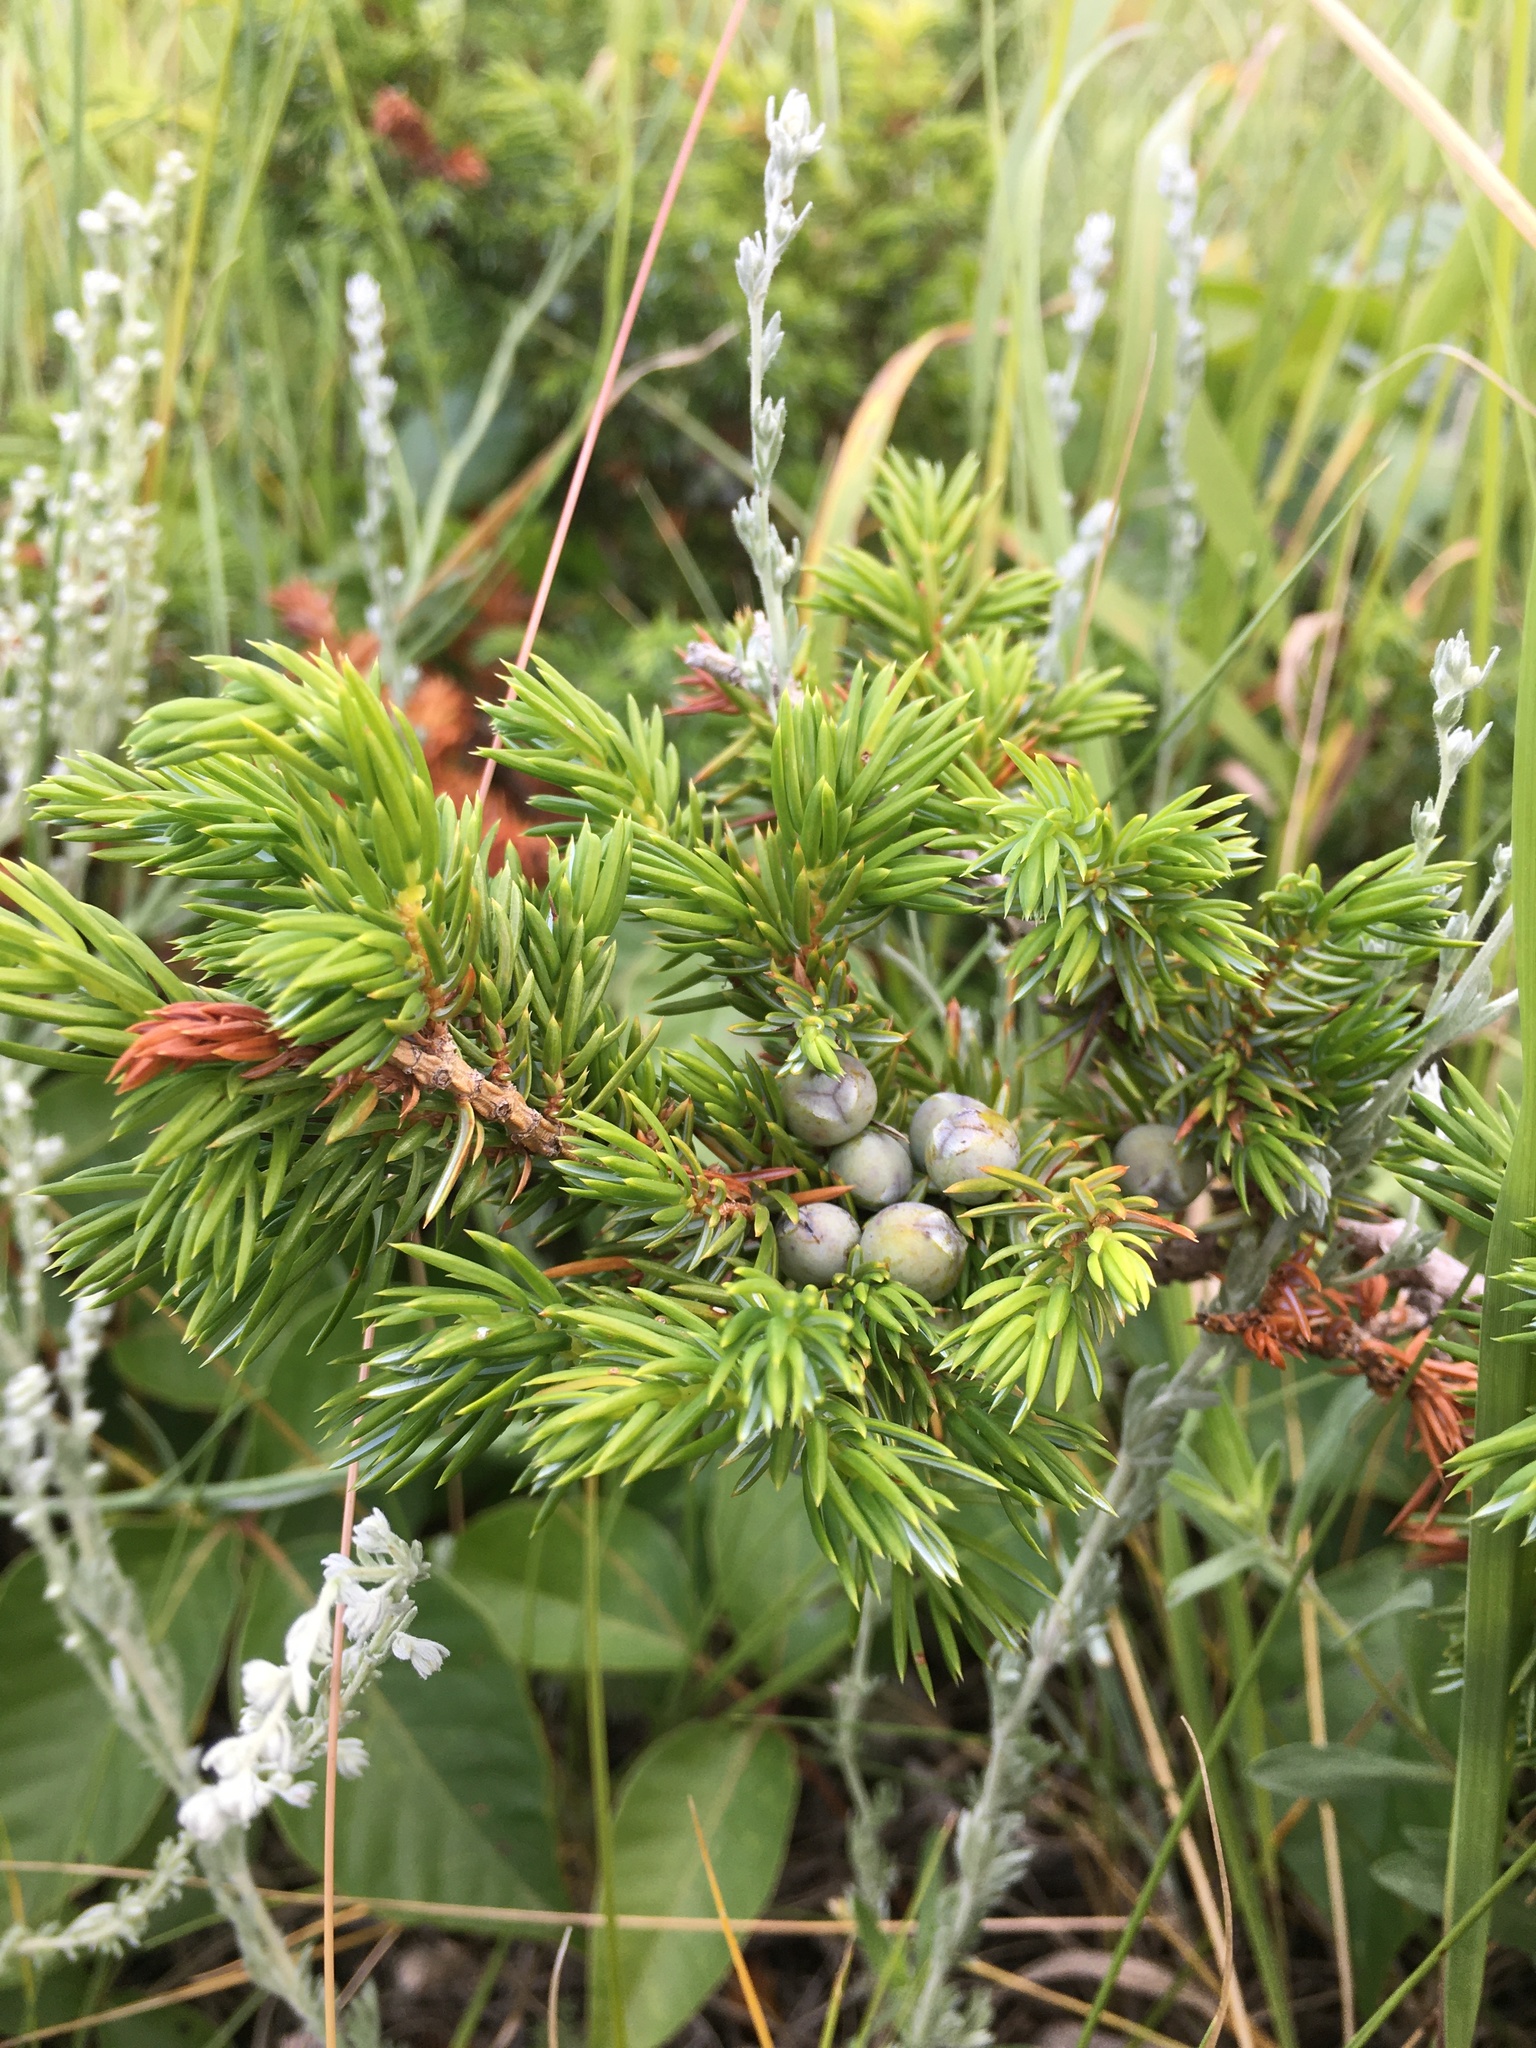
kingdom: Plantae
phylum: Tracheophyta
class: Pinopsida
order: Pinales
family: Cupressaceae
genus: Juniperus
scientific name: Juniperus communis
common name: Common juniper
